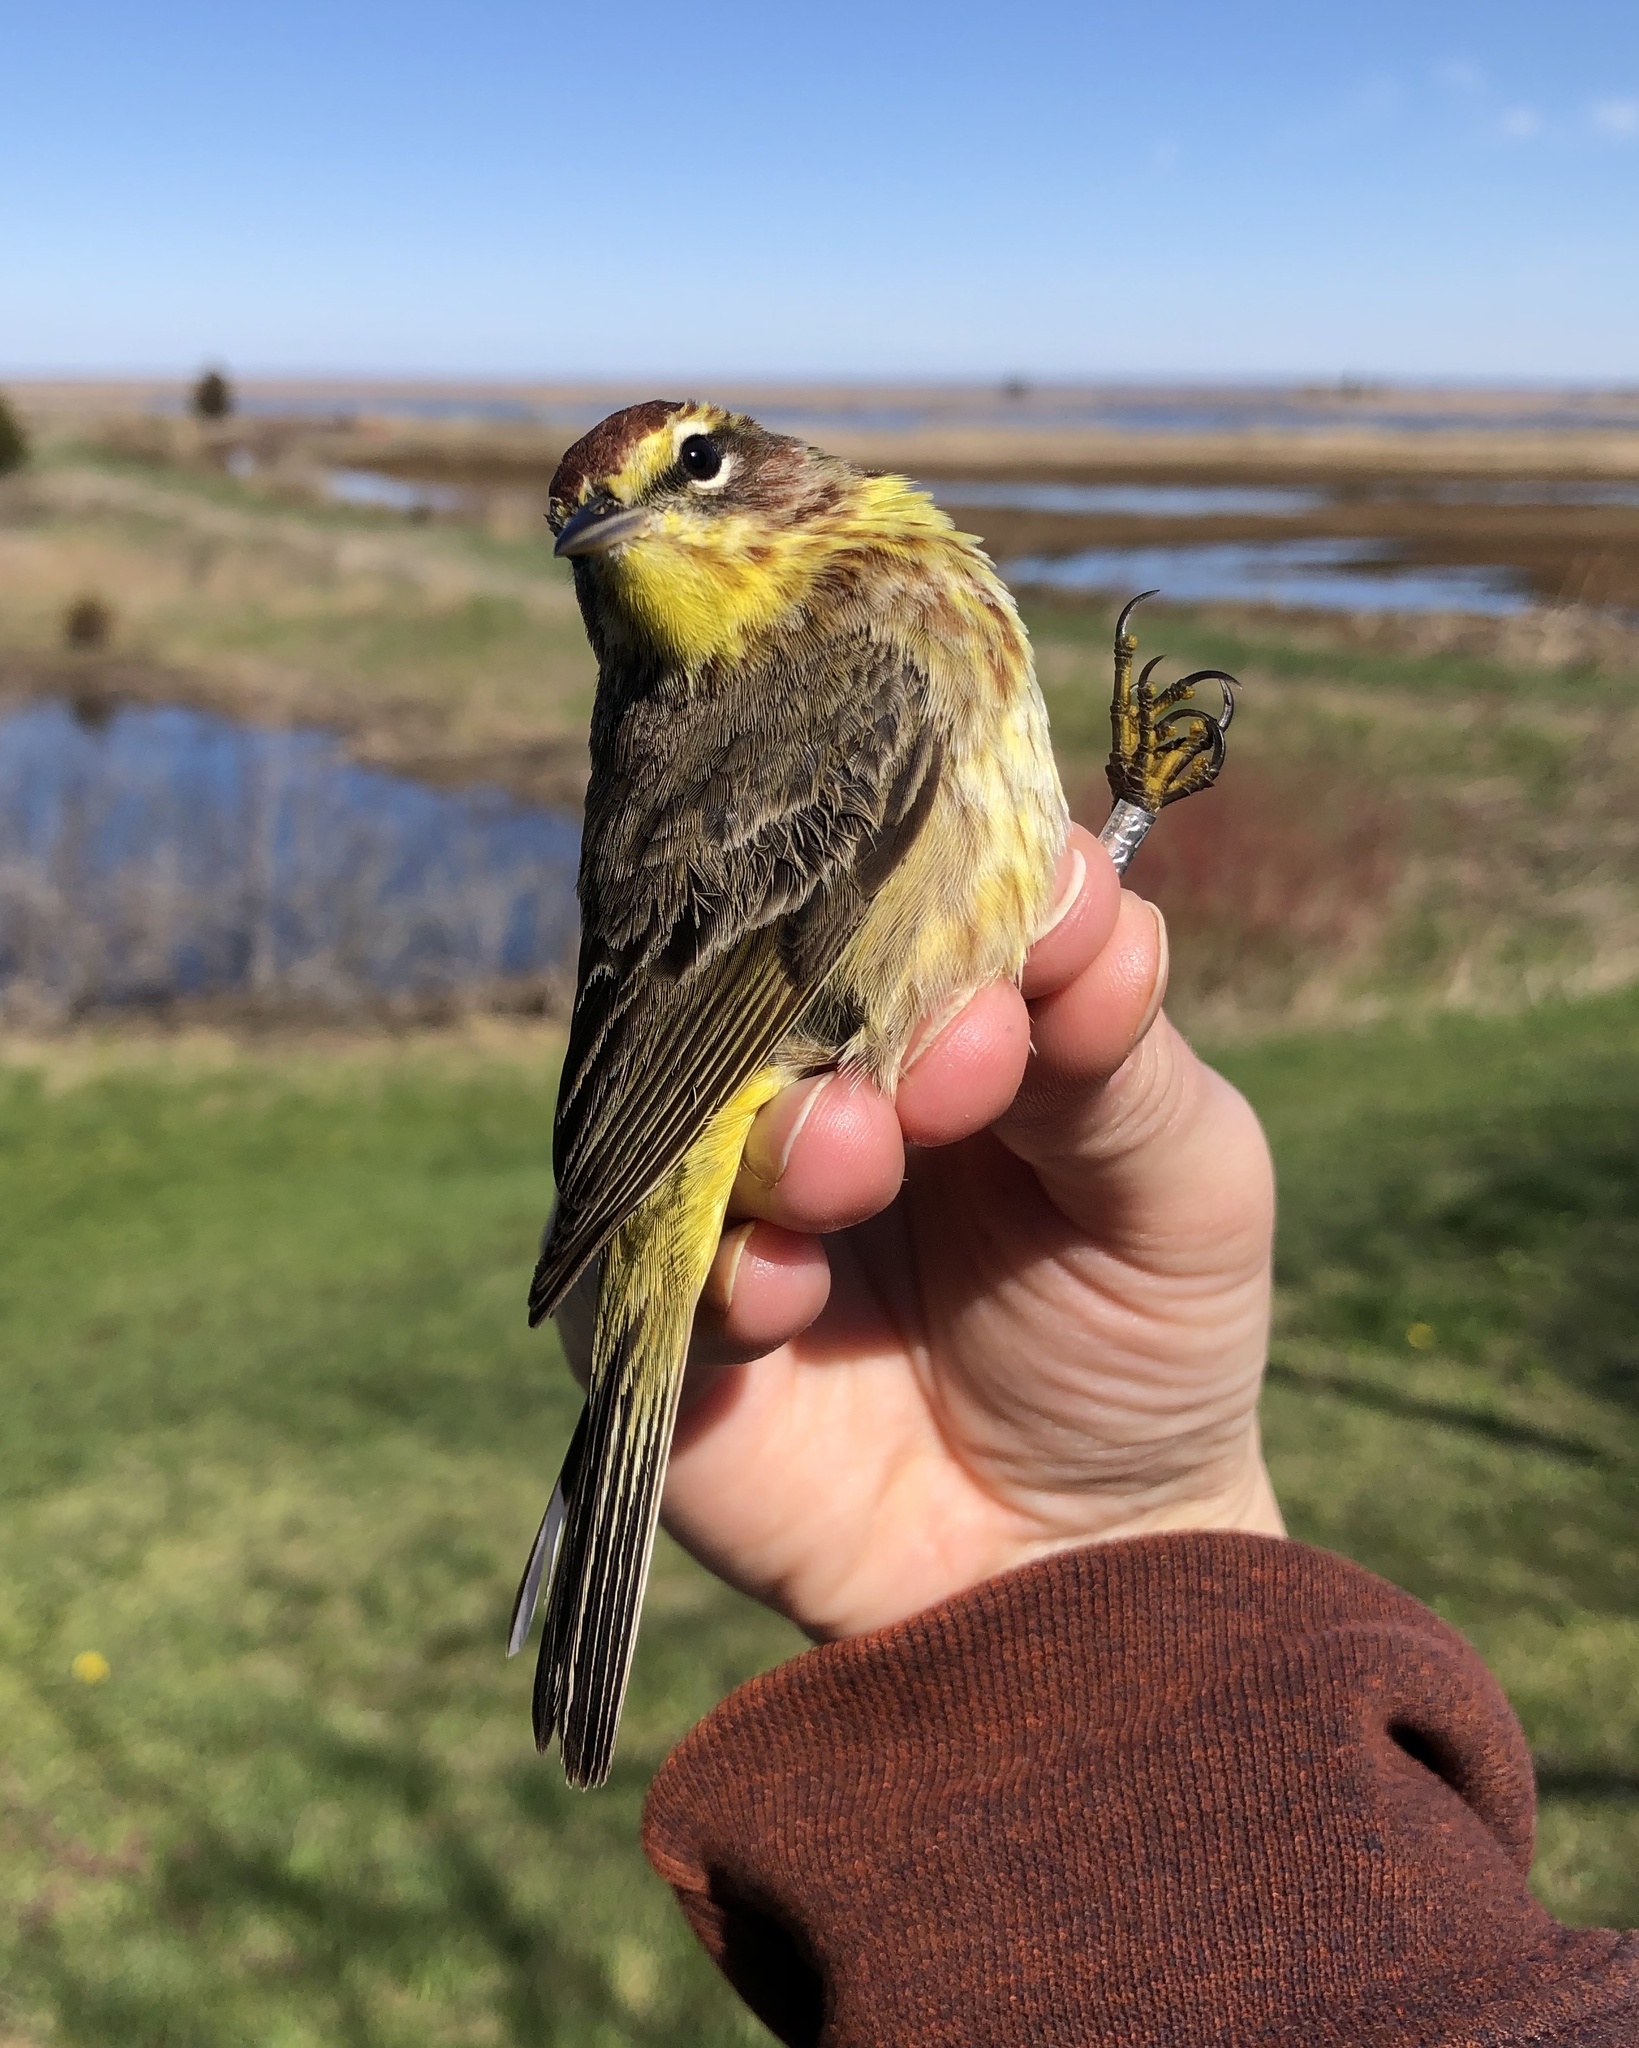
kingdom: Animalia
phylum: Chordata
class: Aves
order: Passeriformes
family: Parulidae
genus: Setophaga
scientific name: Setophaga palmarum
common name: Palm warbler
